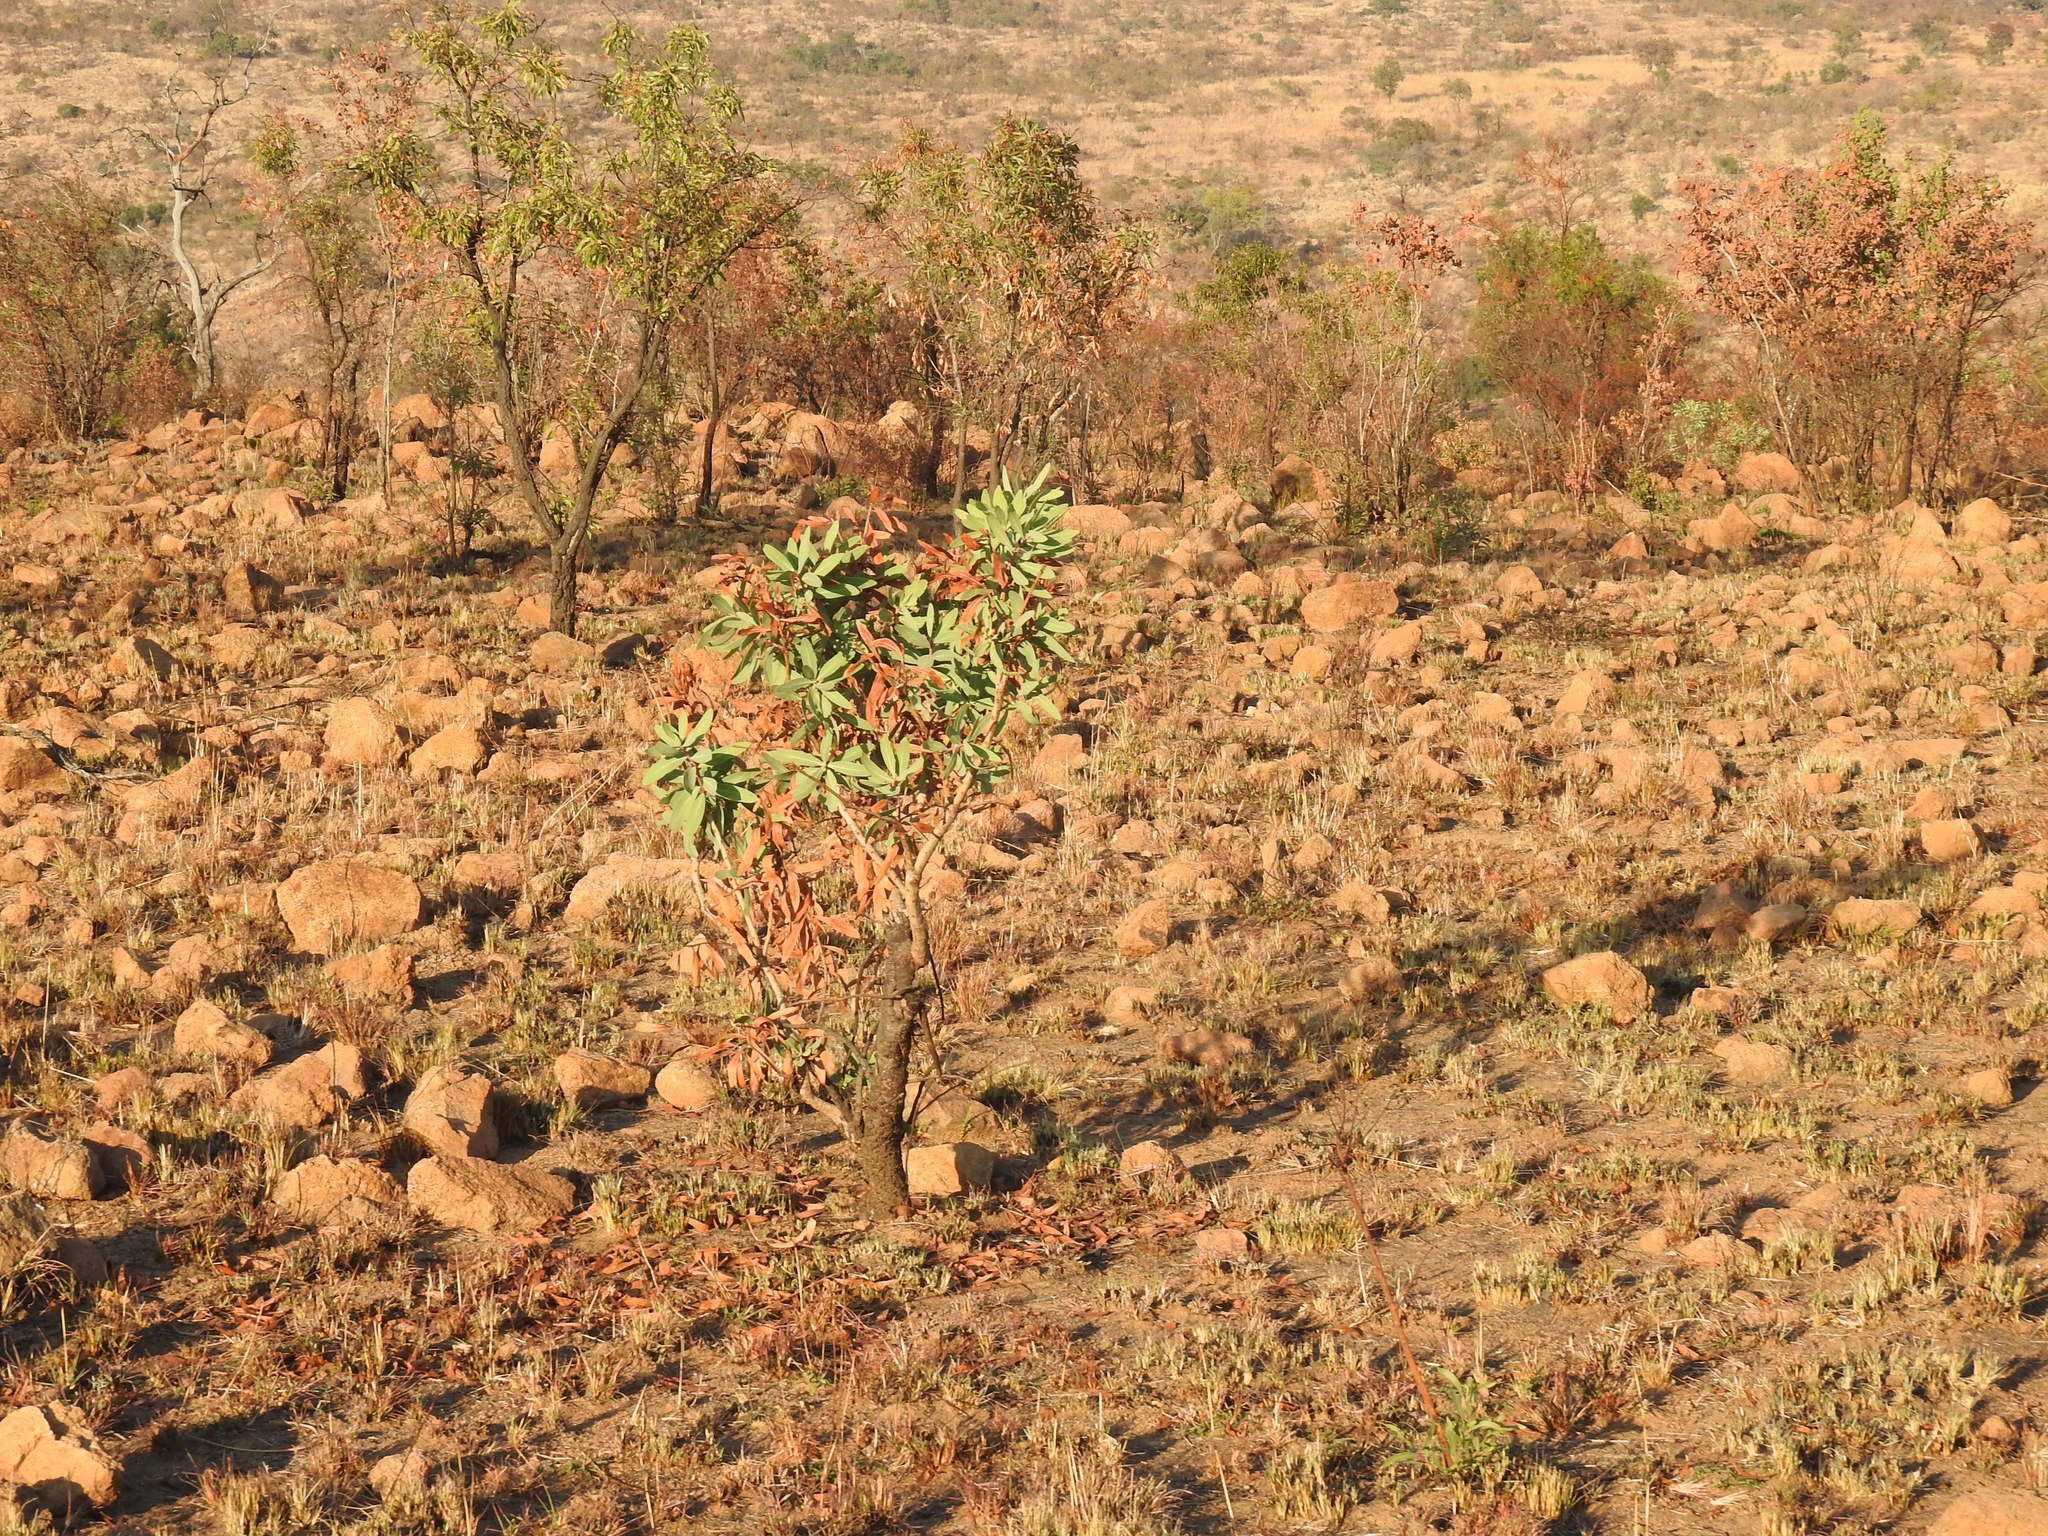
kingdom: Plantae
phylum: Tracheophyta
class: Magnoliopsida
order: Proteales
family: Proteaceae
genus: Protea
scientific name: Protea caffra
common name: Common sugarbush
